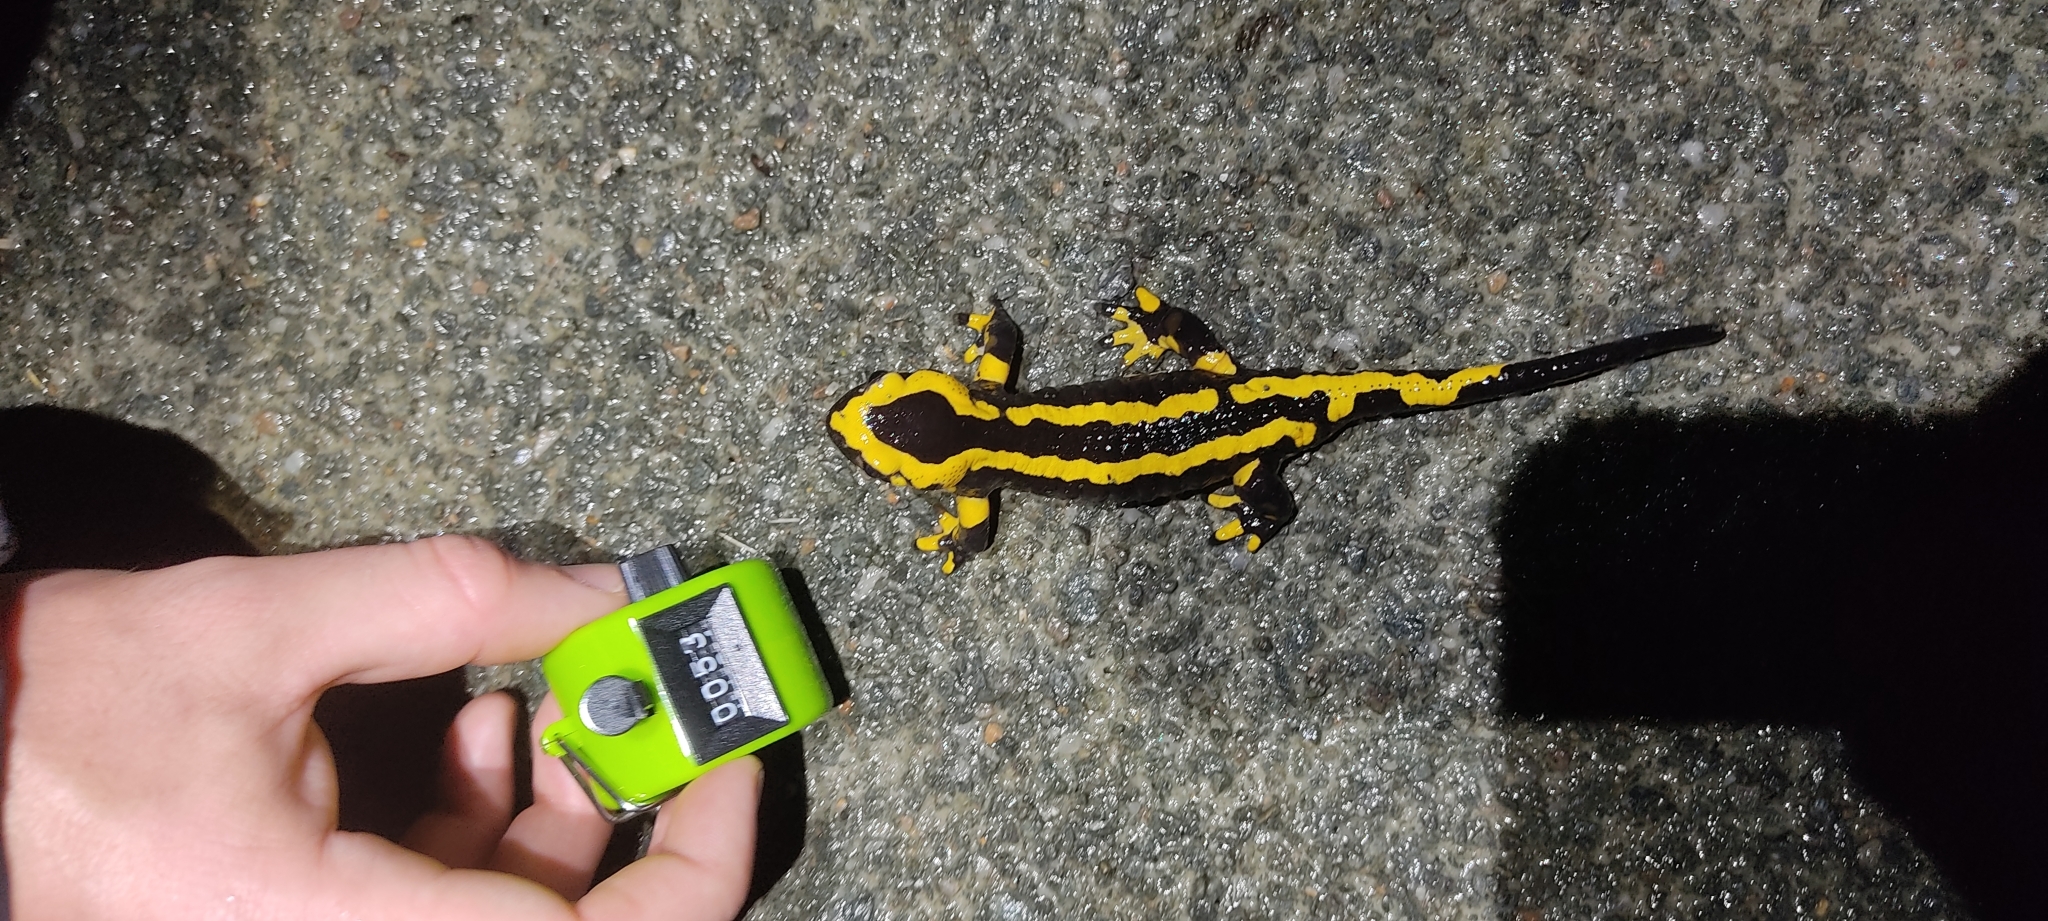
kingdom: Animalia
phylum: Chordata
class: Amphibia
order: Caudata
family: Salamandridae
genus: Salamandra
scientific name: Salamandra salamandra
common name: Fire salamander
